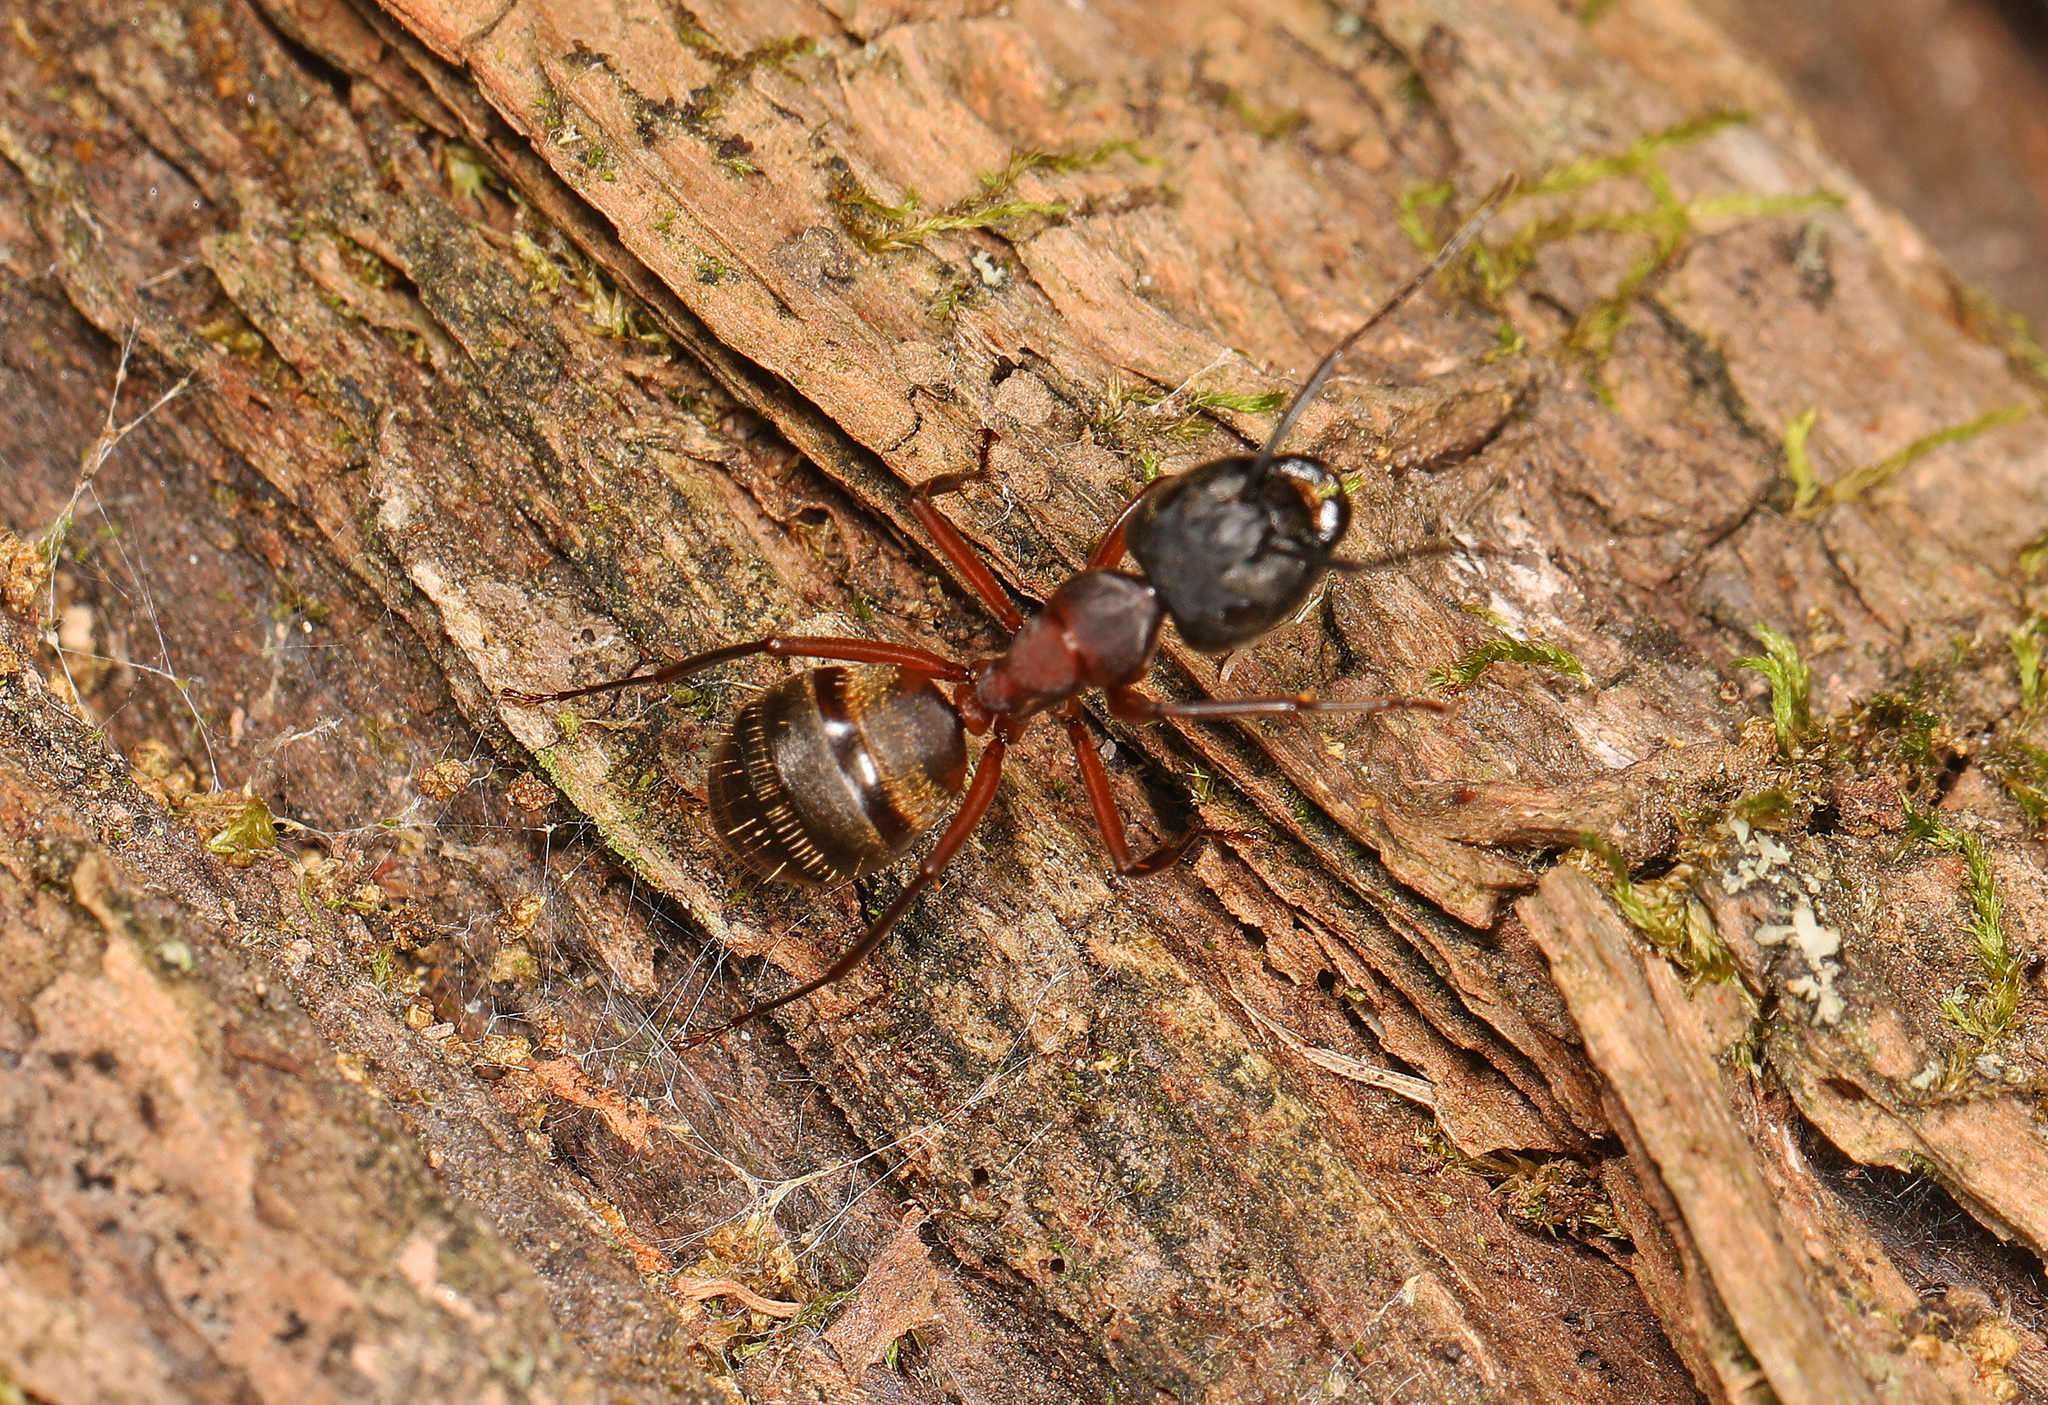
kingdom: Animalia
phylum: Arthropoda
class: Insecta
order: Hymenoptera
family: Formicidae
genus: Camponotus
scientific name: Camponotus chromaiodes
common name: Red carpenter ant
